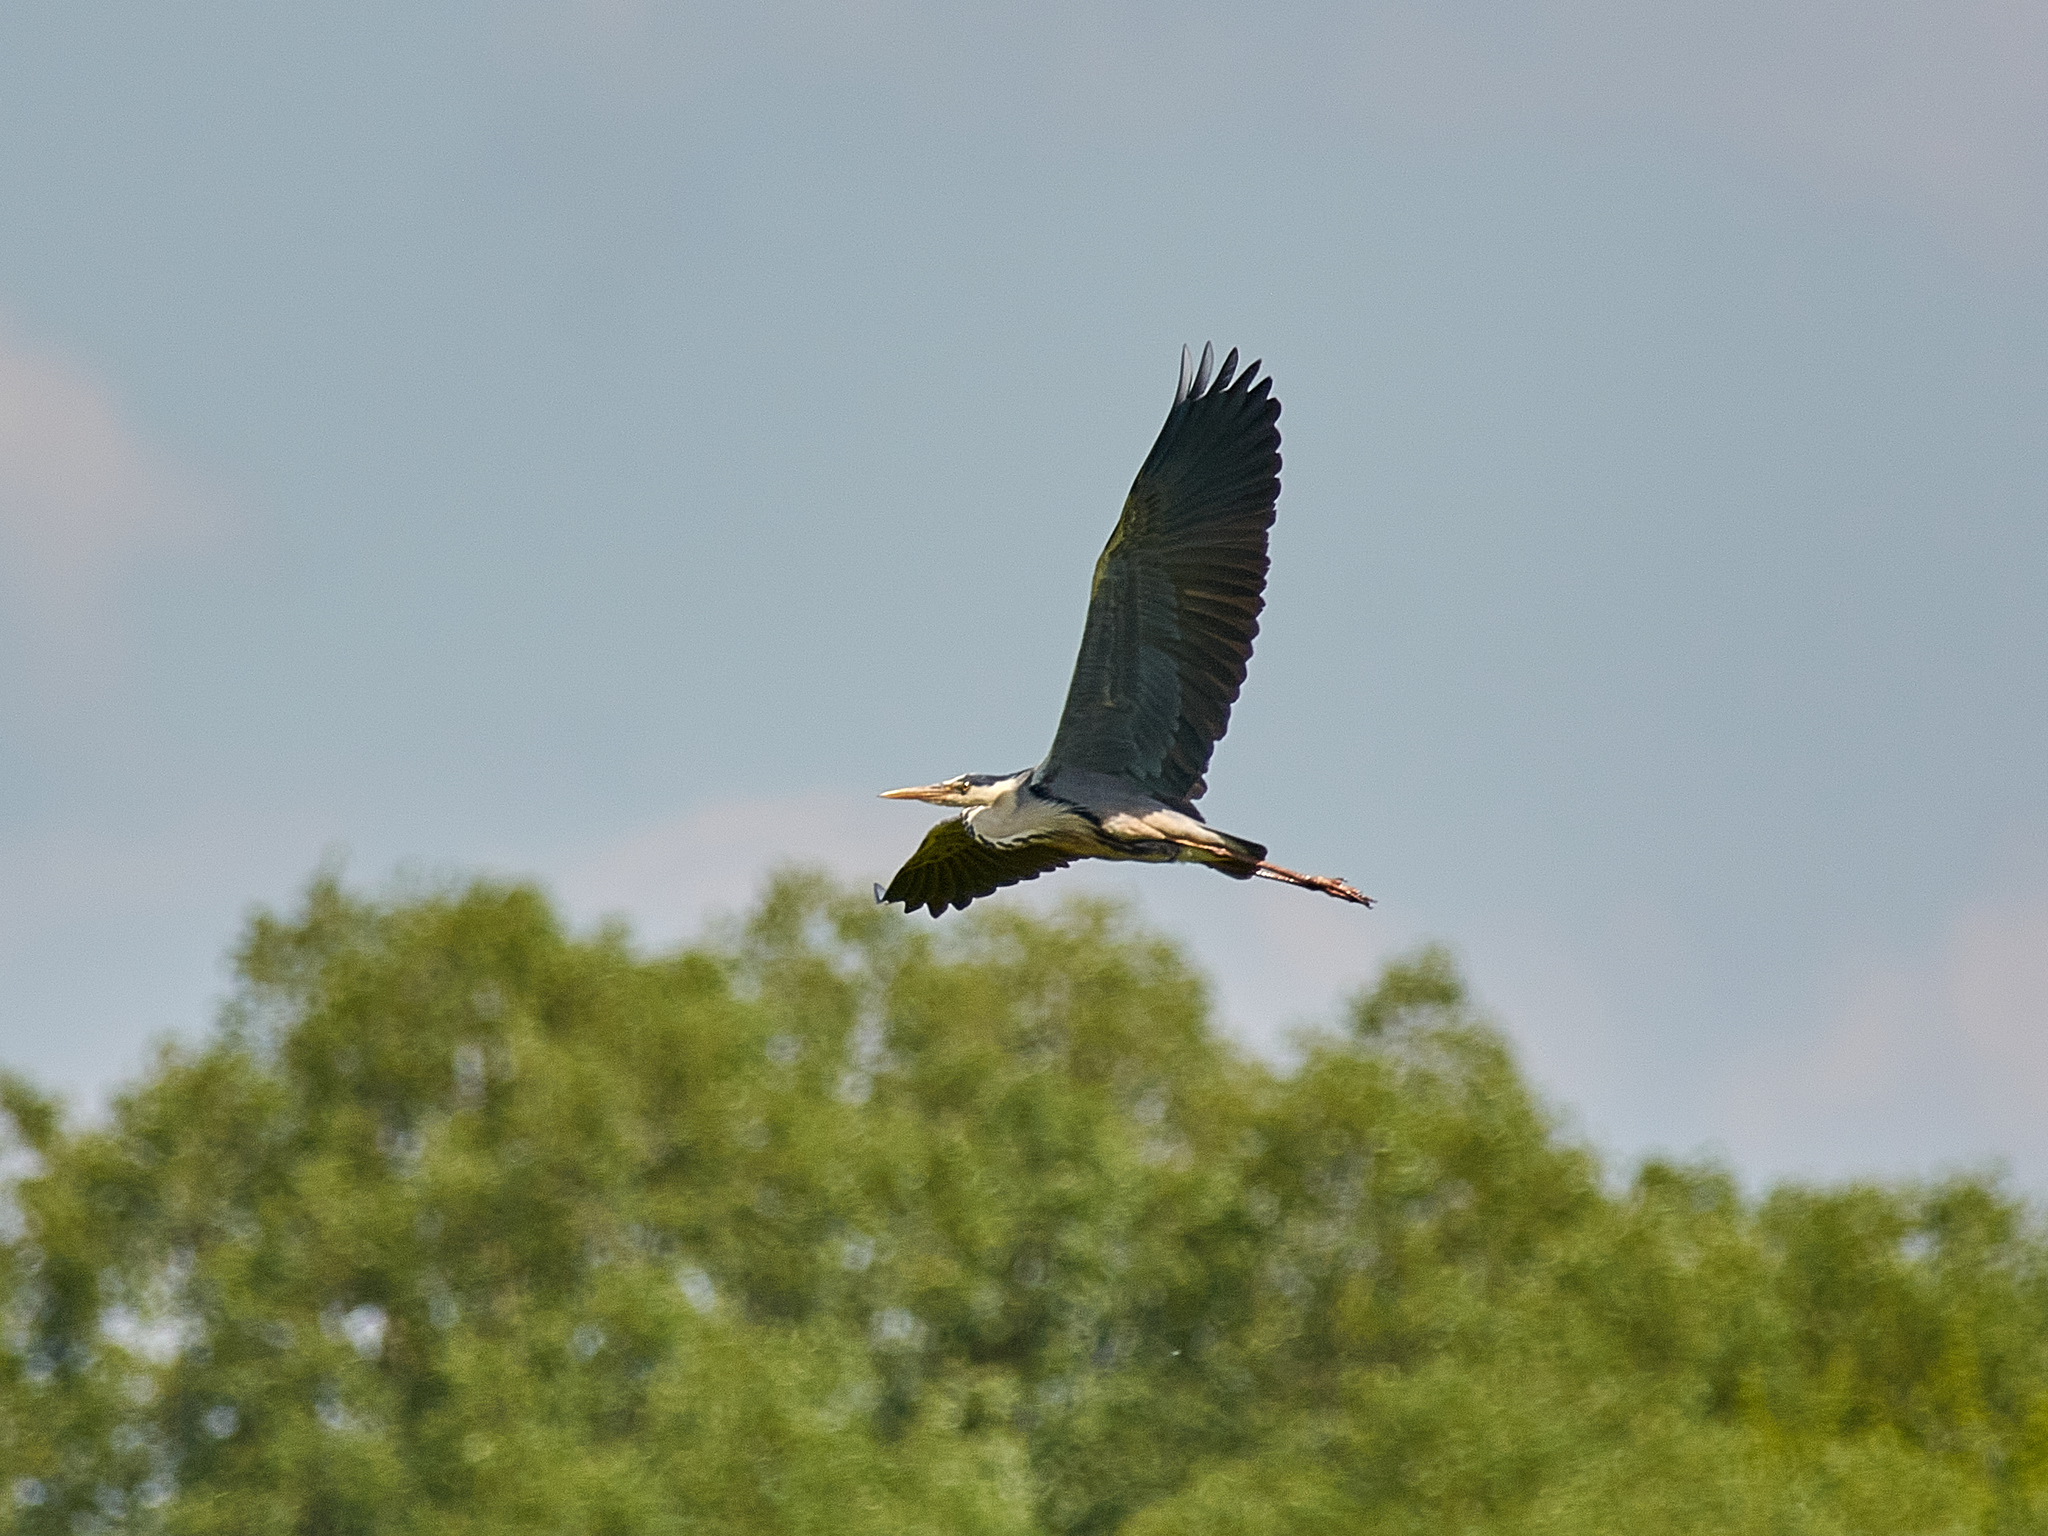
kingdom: Animalia
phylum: Chordata
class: Aves
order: Pelecaniformes
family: Ardeidae
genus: Ardea
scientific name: Ardea cinerea
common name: Grey heron
